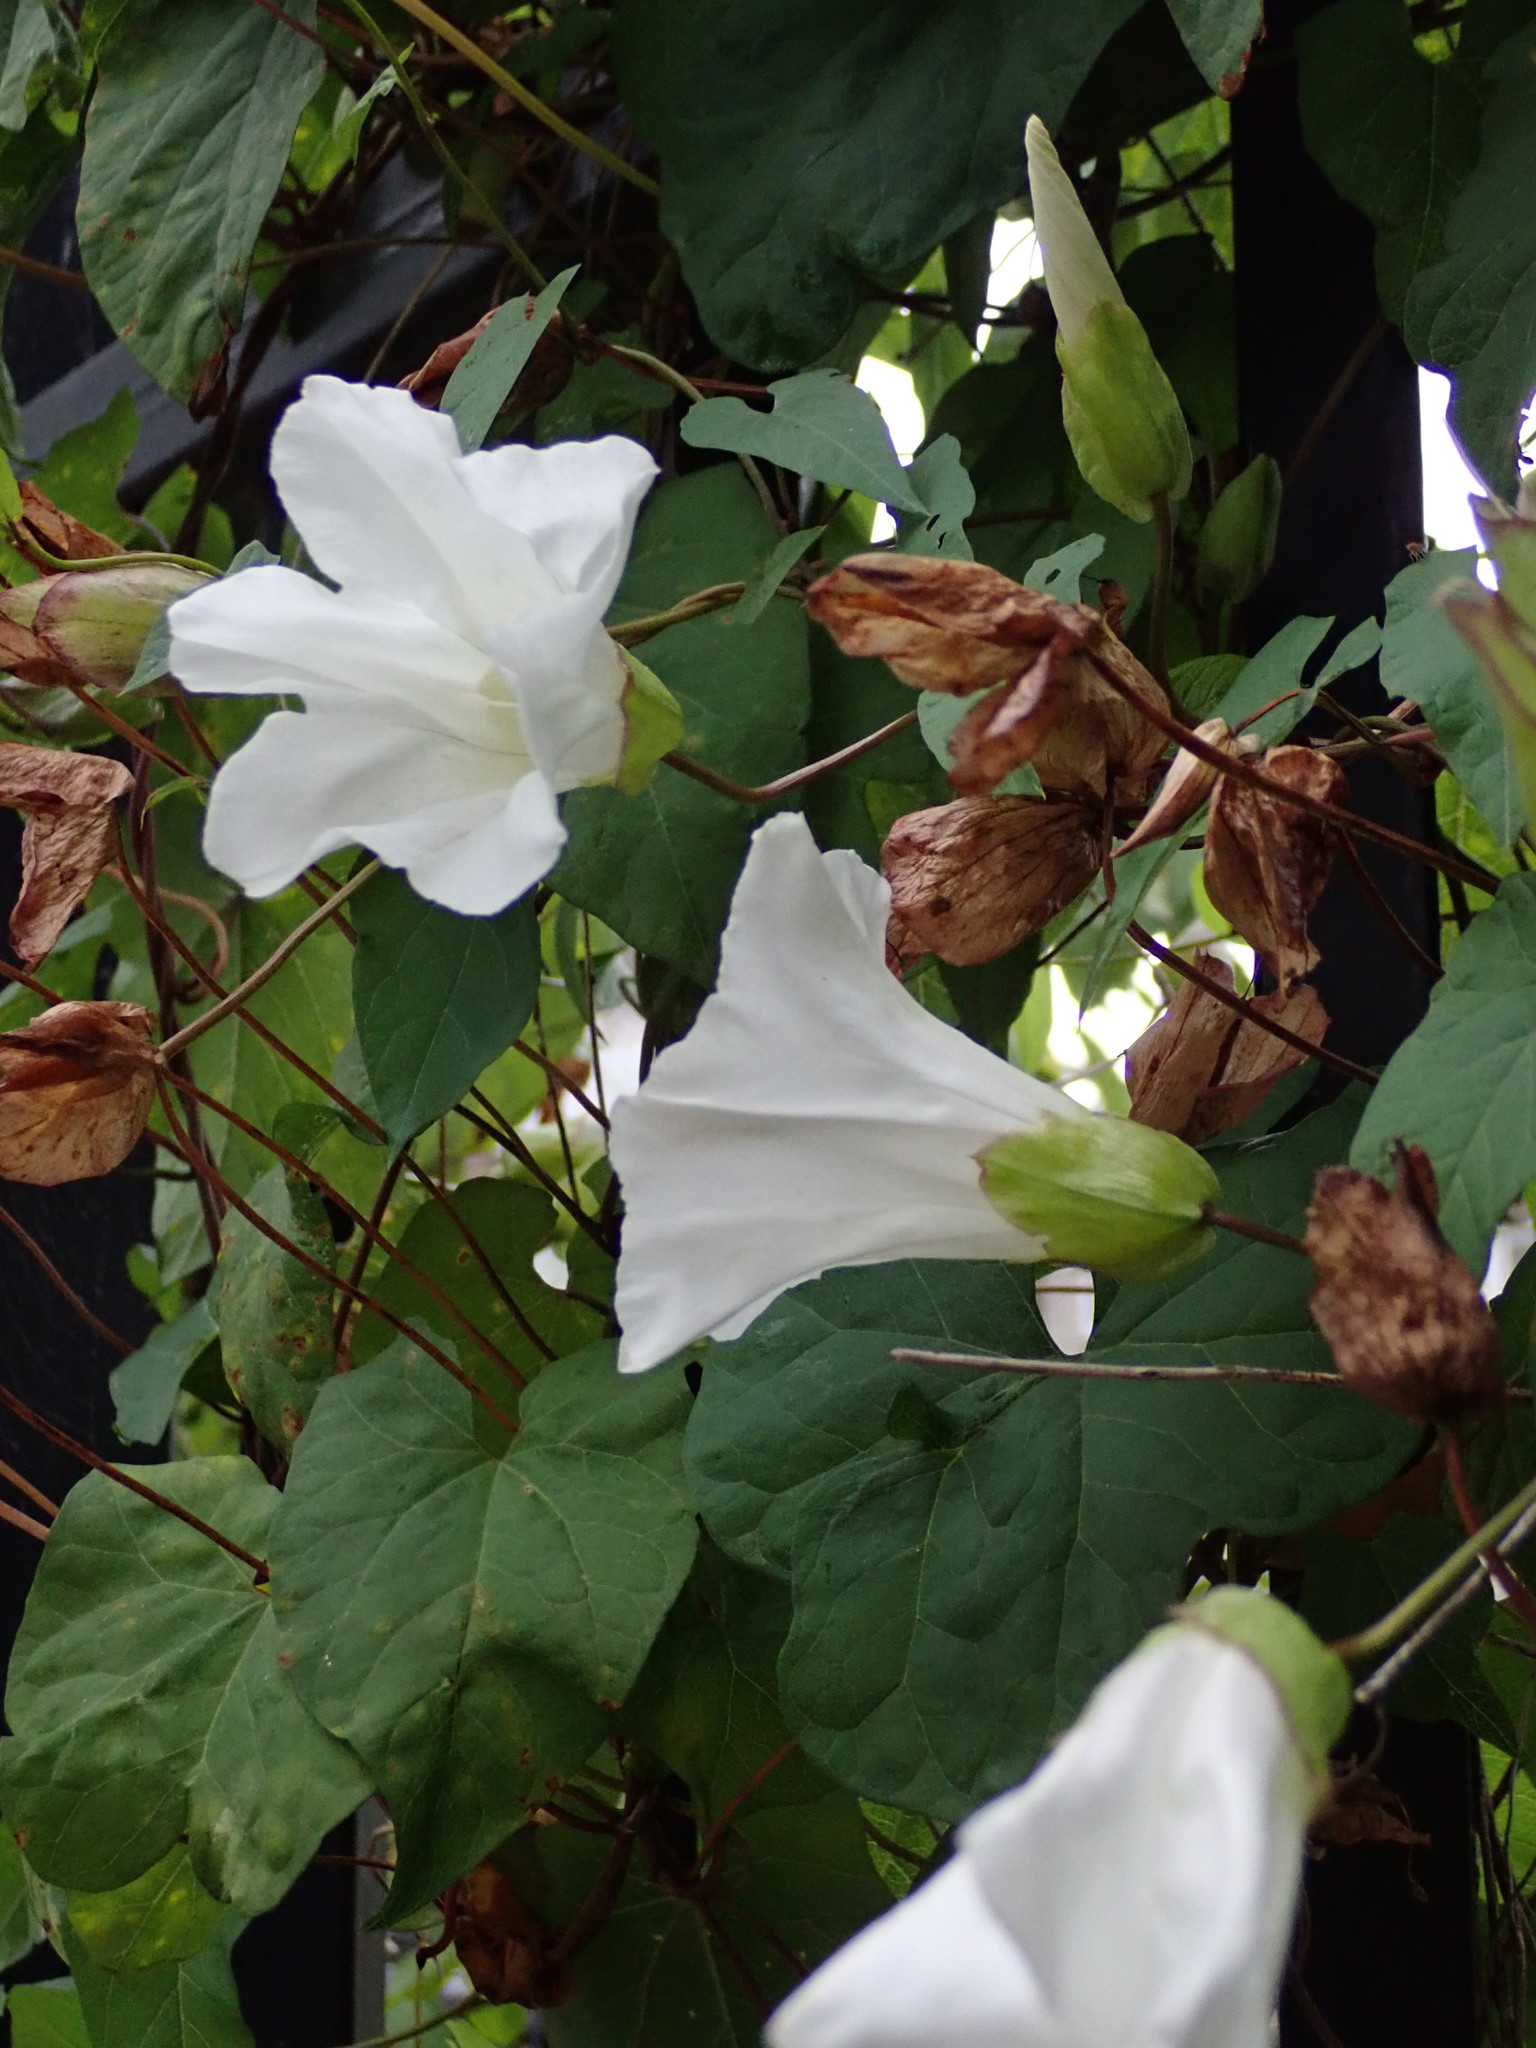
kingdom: Plantae
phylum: Tracheophyta
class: Magnoliopsida
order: Solanales
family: Convolvulaceae
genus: Calystegia
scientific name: Calystegia silvatica
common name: Large bindweed
